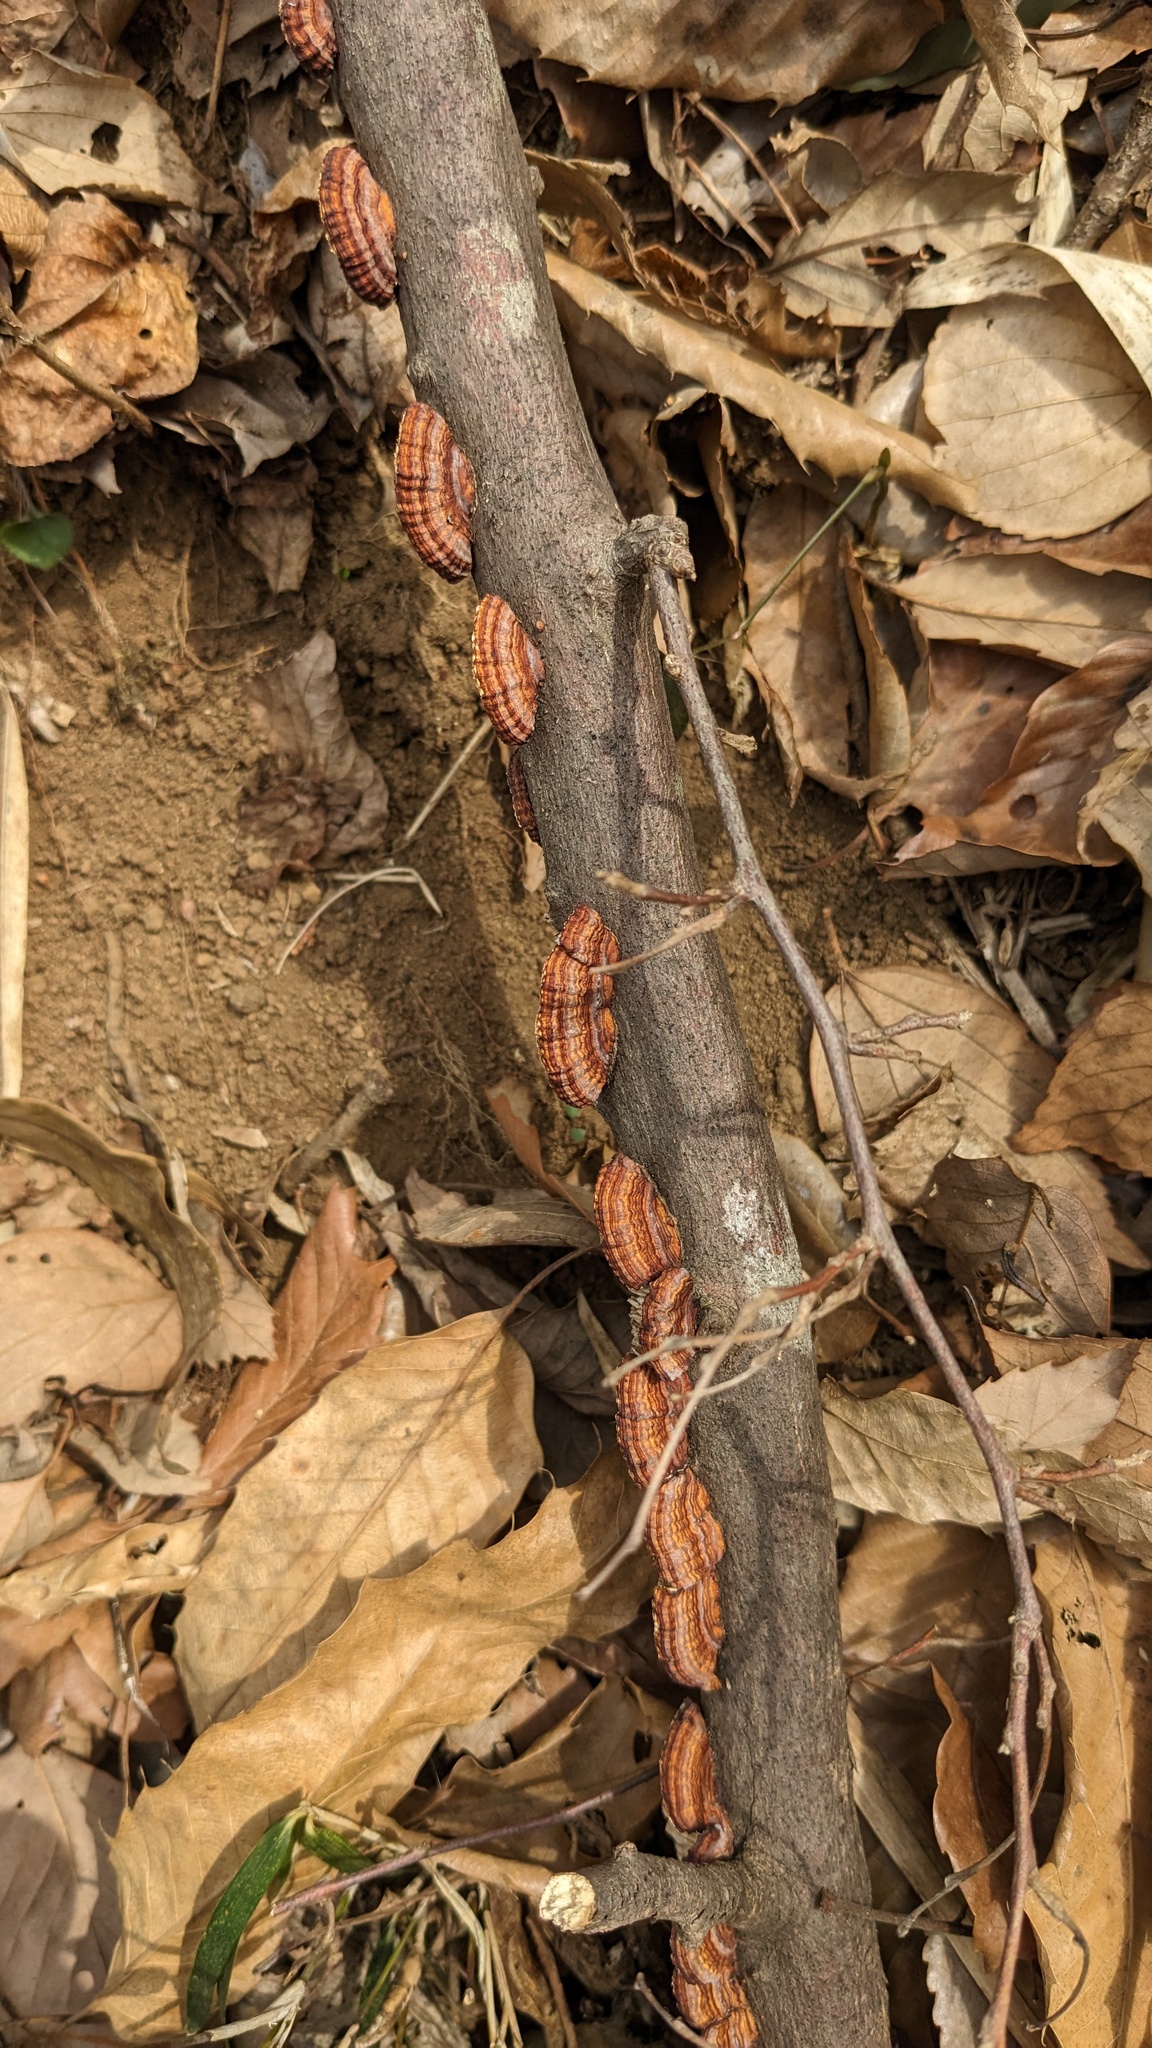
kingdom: Fungi
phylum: Basidiomycota
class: Agaricomycetes
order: Polyporales
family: Polyporaceae
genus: Lenzites
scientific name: Lenzites styracinus
